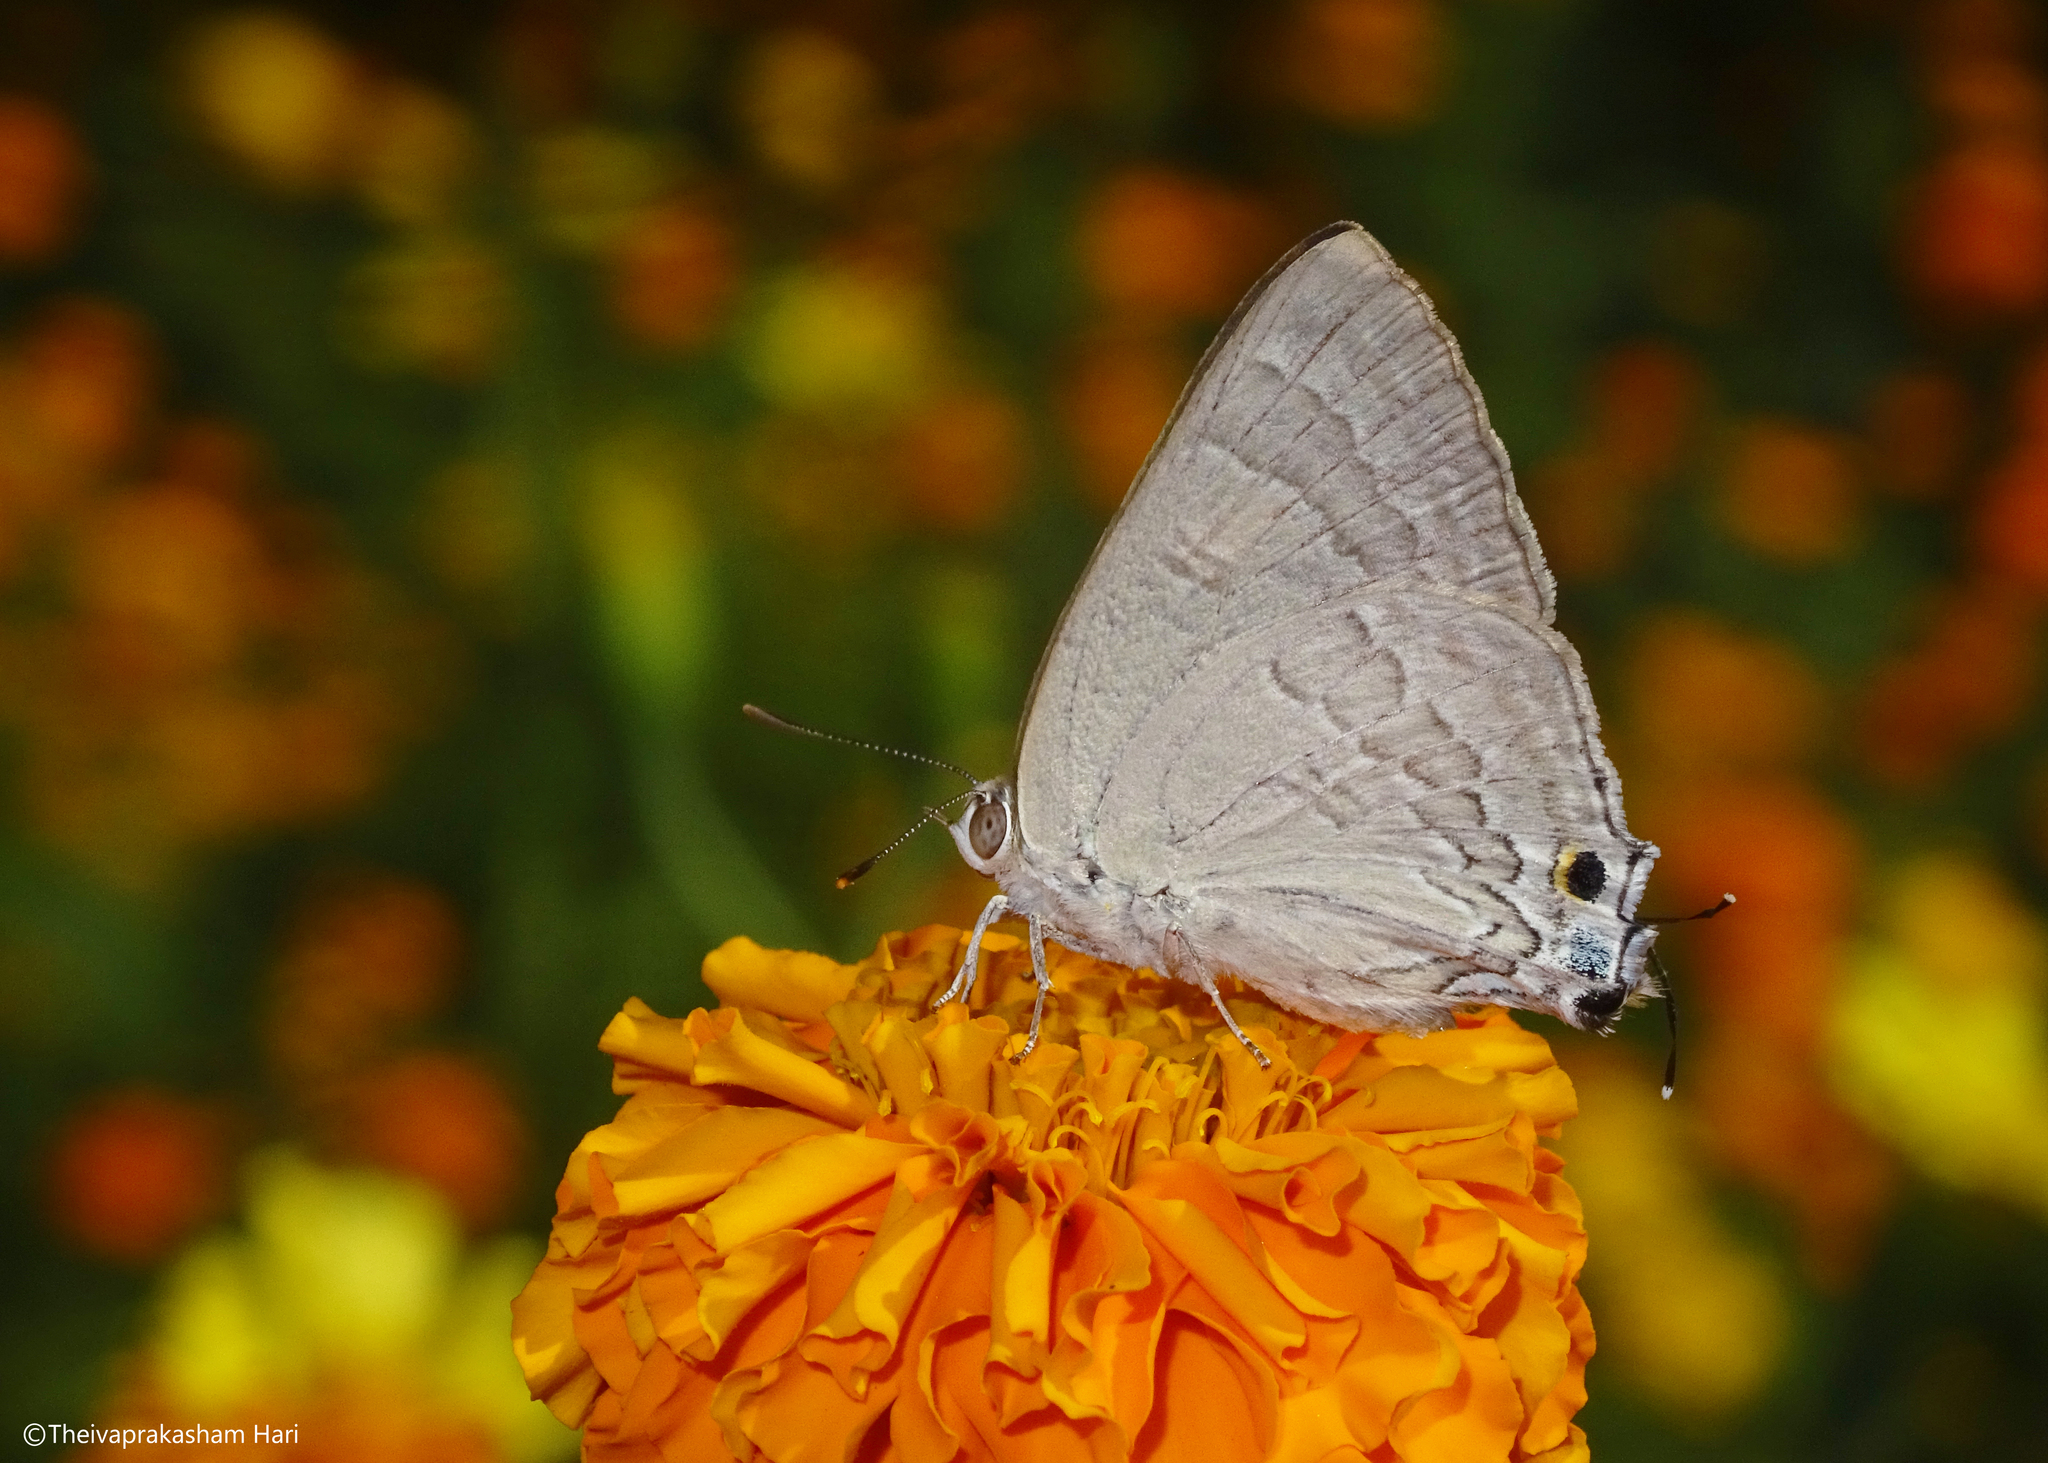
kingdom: Animalia
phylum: Arthropoda
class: Insecta
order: Lepidoptera
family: Lycaenidae
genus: Deudorix
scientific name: Deudorix
